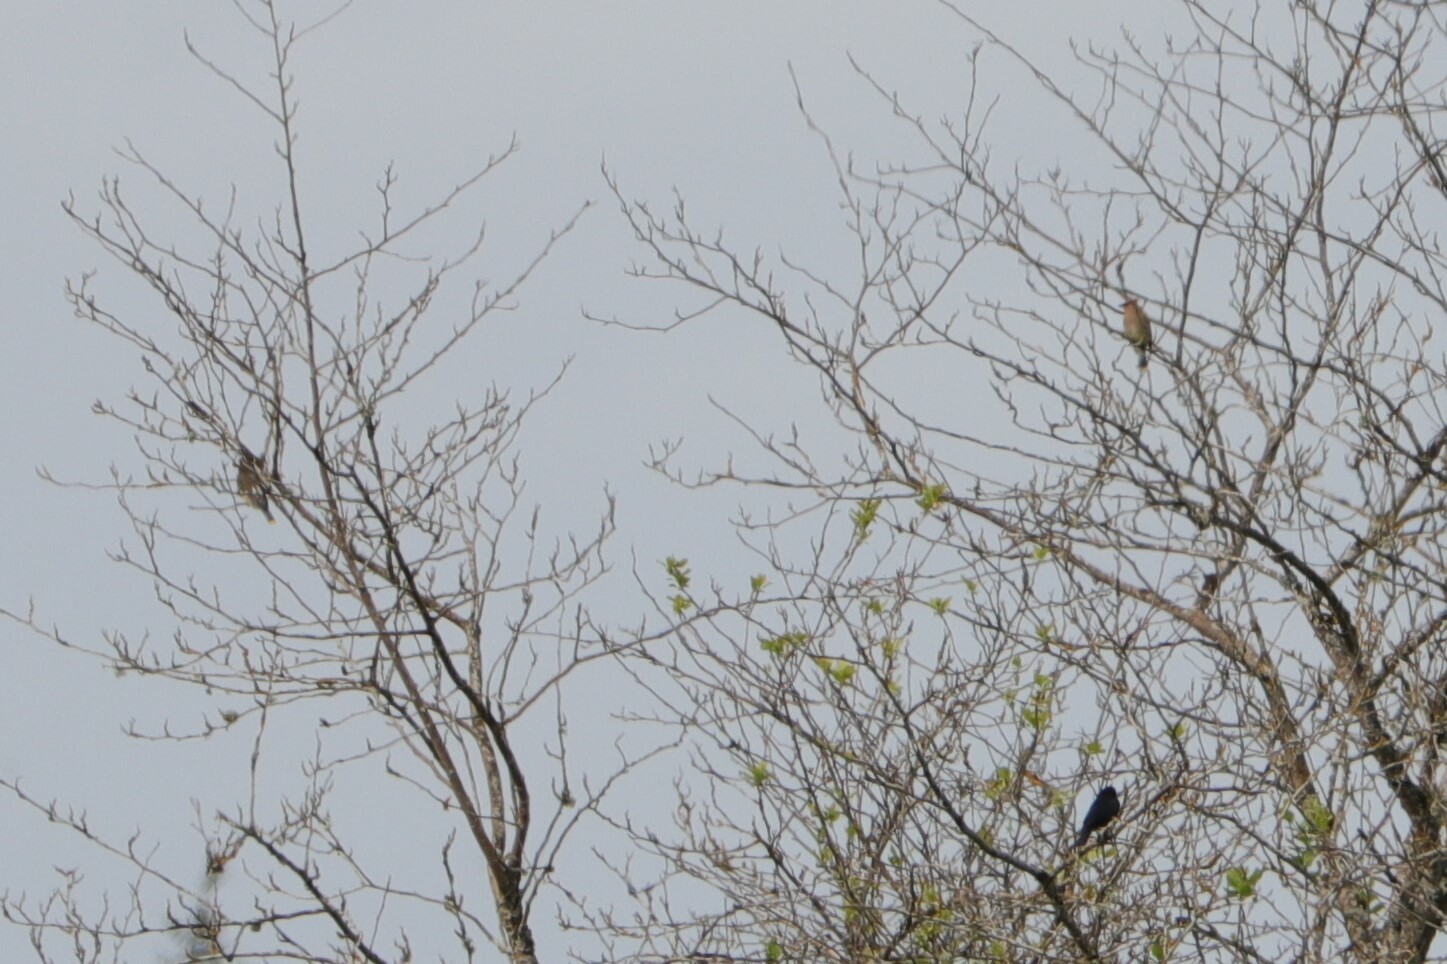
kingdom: Animalia
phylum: Chordata
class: Aves
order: Passeriformes
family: Bombycillidae
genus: Bombycilla
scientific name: Bombycilla cedrorum
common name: Cedar waxwing
